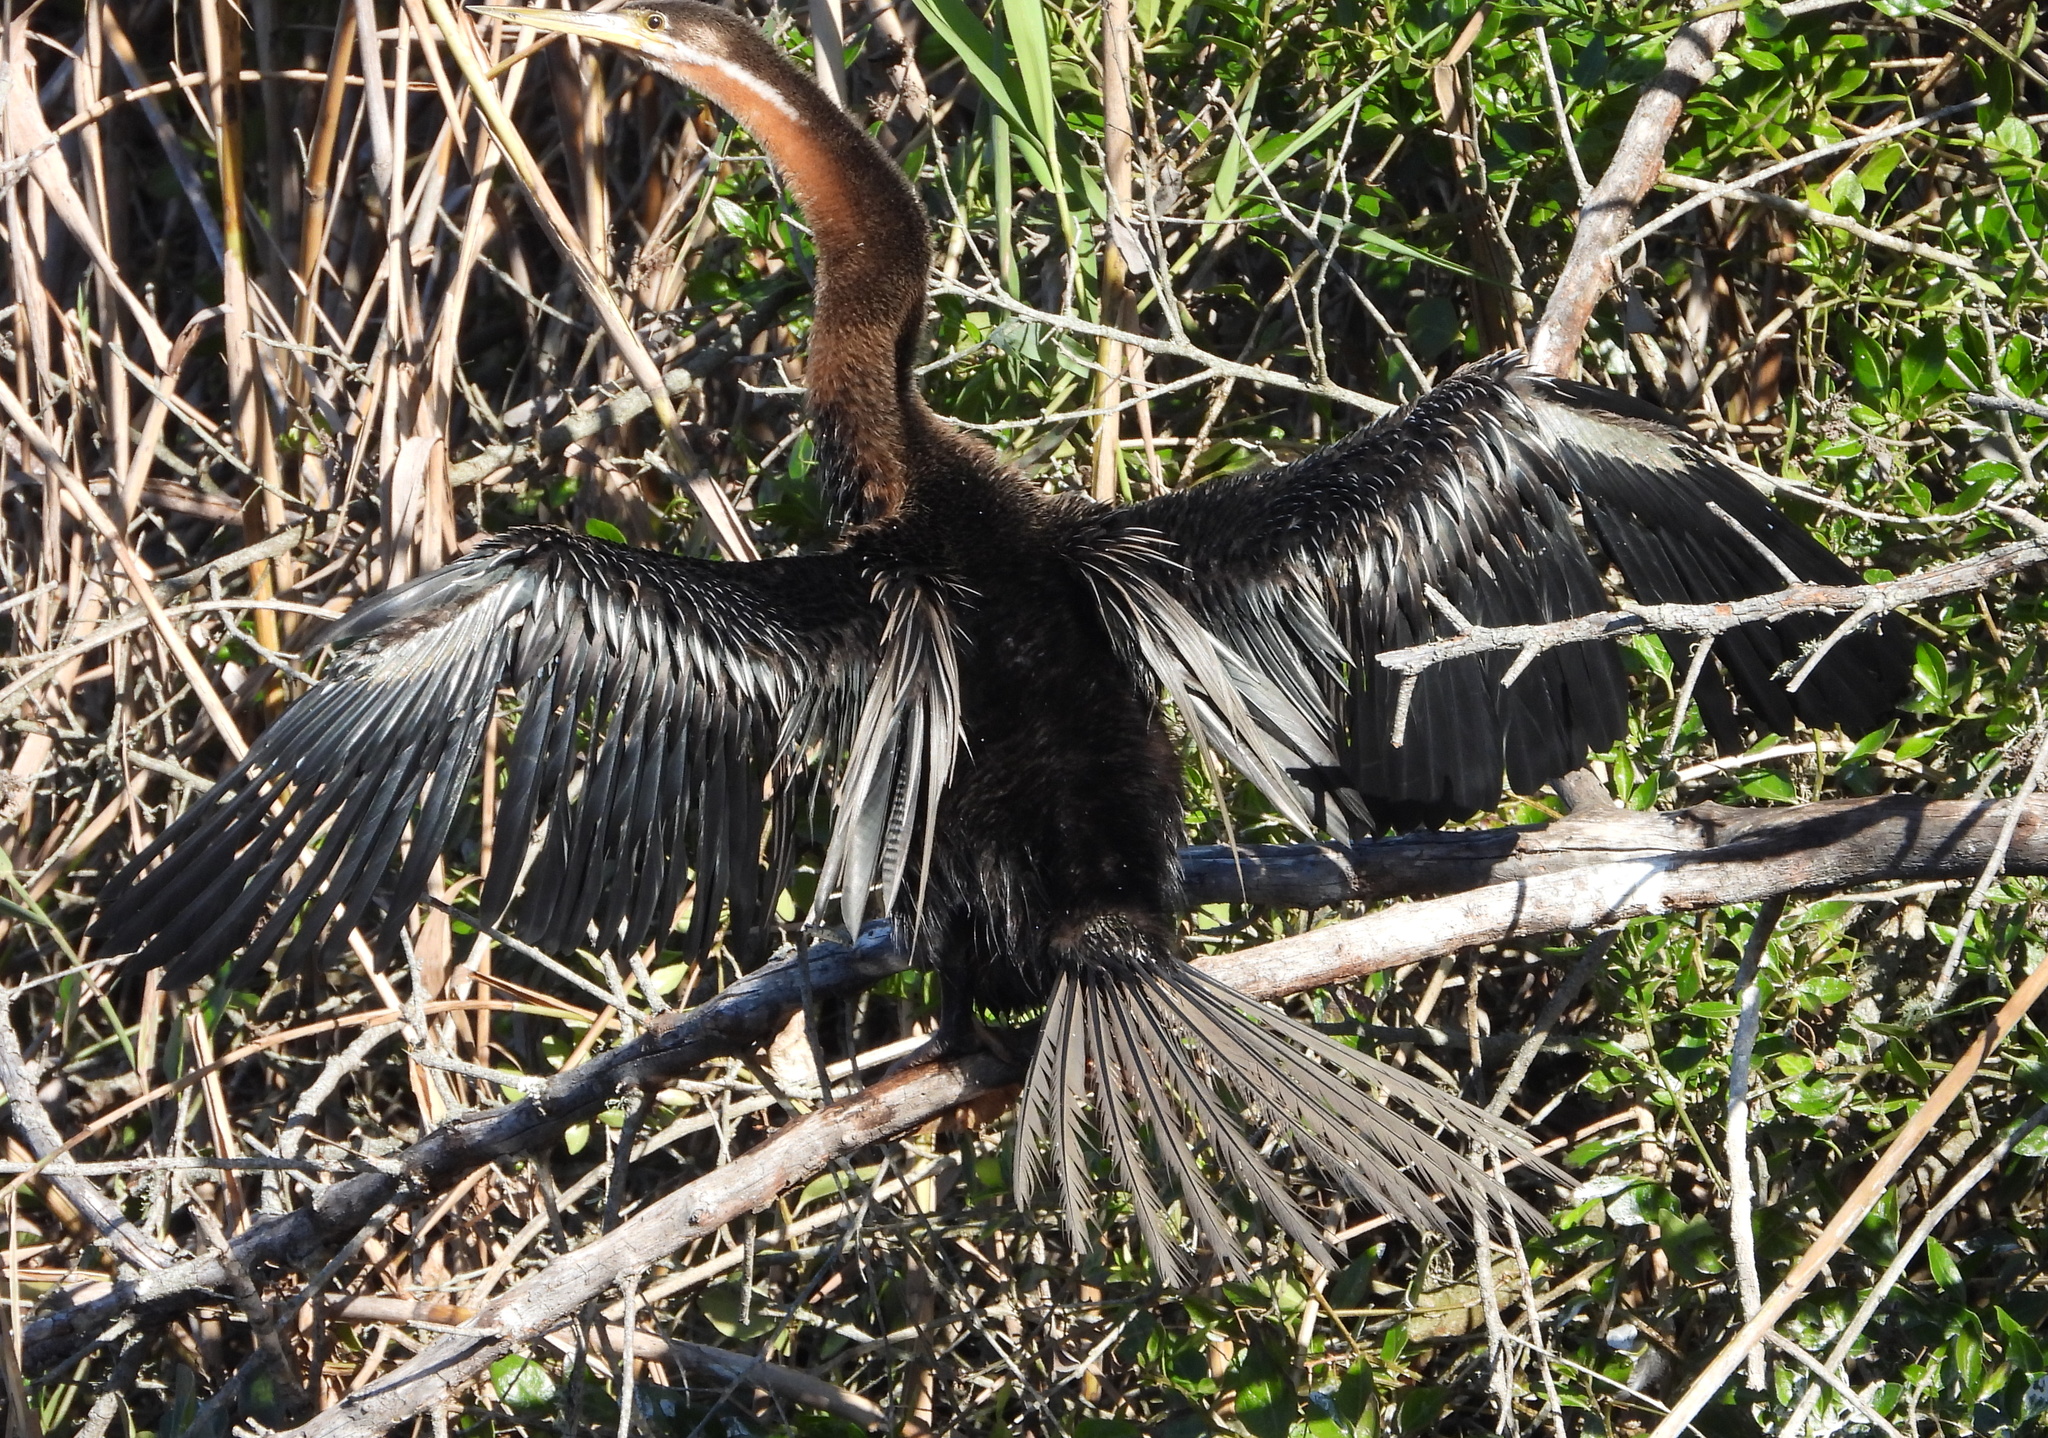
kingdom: Animalia
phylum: Chordata
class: Aves
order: Suliformes
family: Anhingidae
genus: Anhinga
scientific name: Anhinga rufa
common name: African darter
